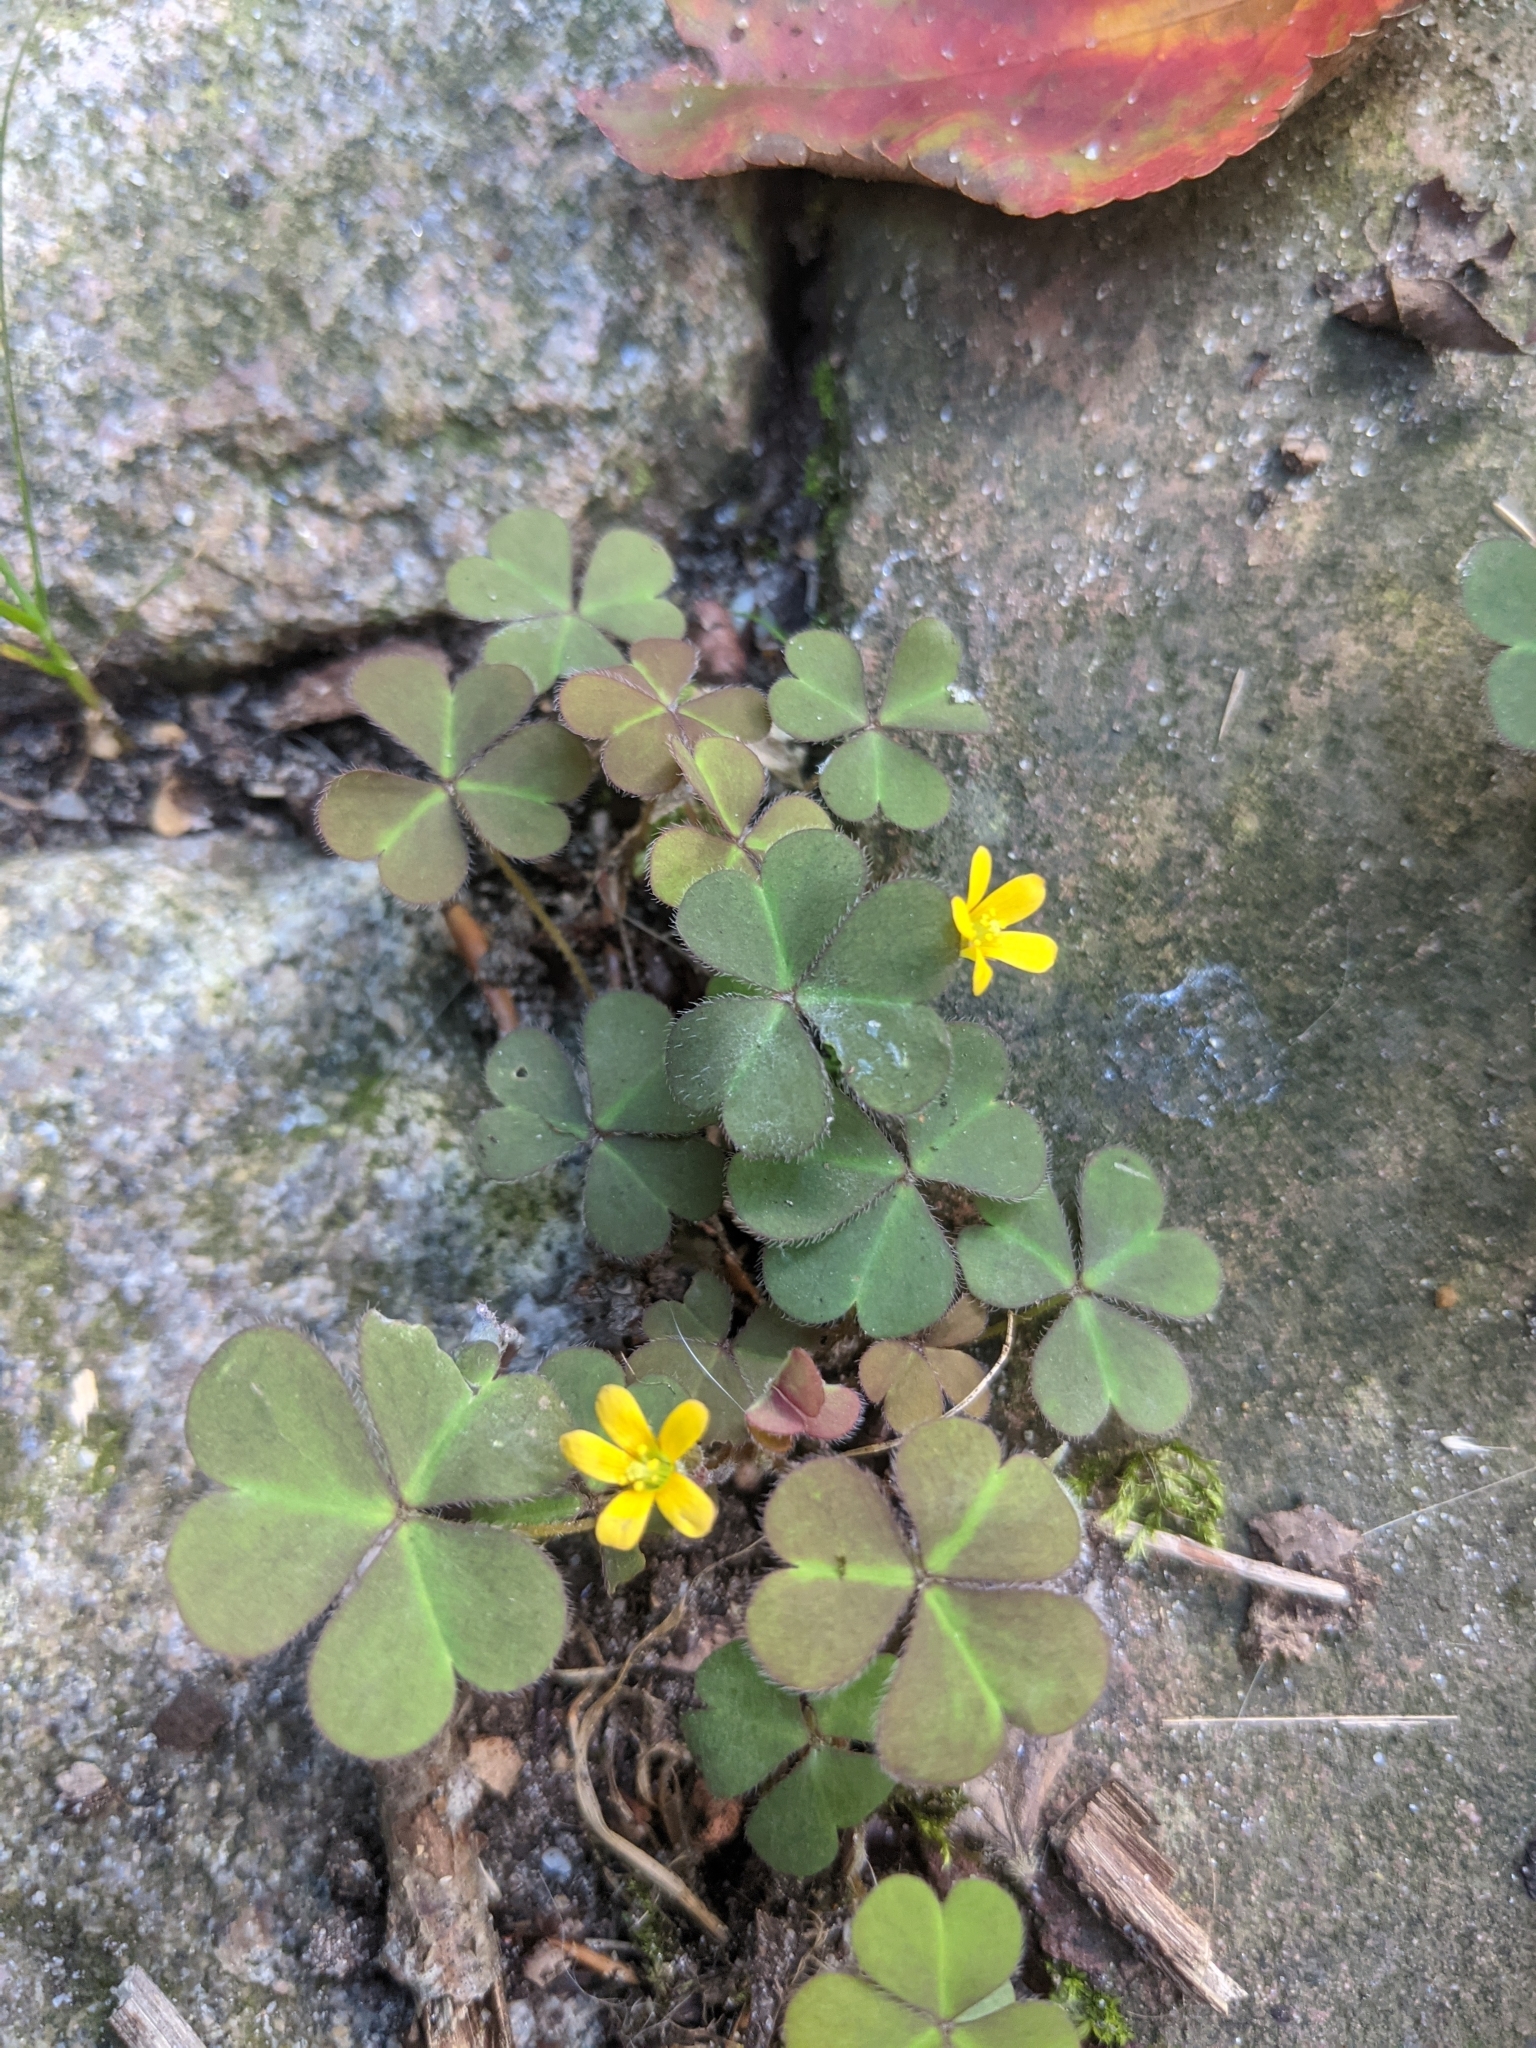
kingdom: Plantae
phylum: Tracheophyta
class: Magnoliopsida
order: Oxalidales
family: Oxalidaceae
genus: Oxalis
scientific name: Oxalis corniculata
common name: Procumbent yellow-sorrel
